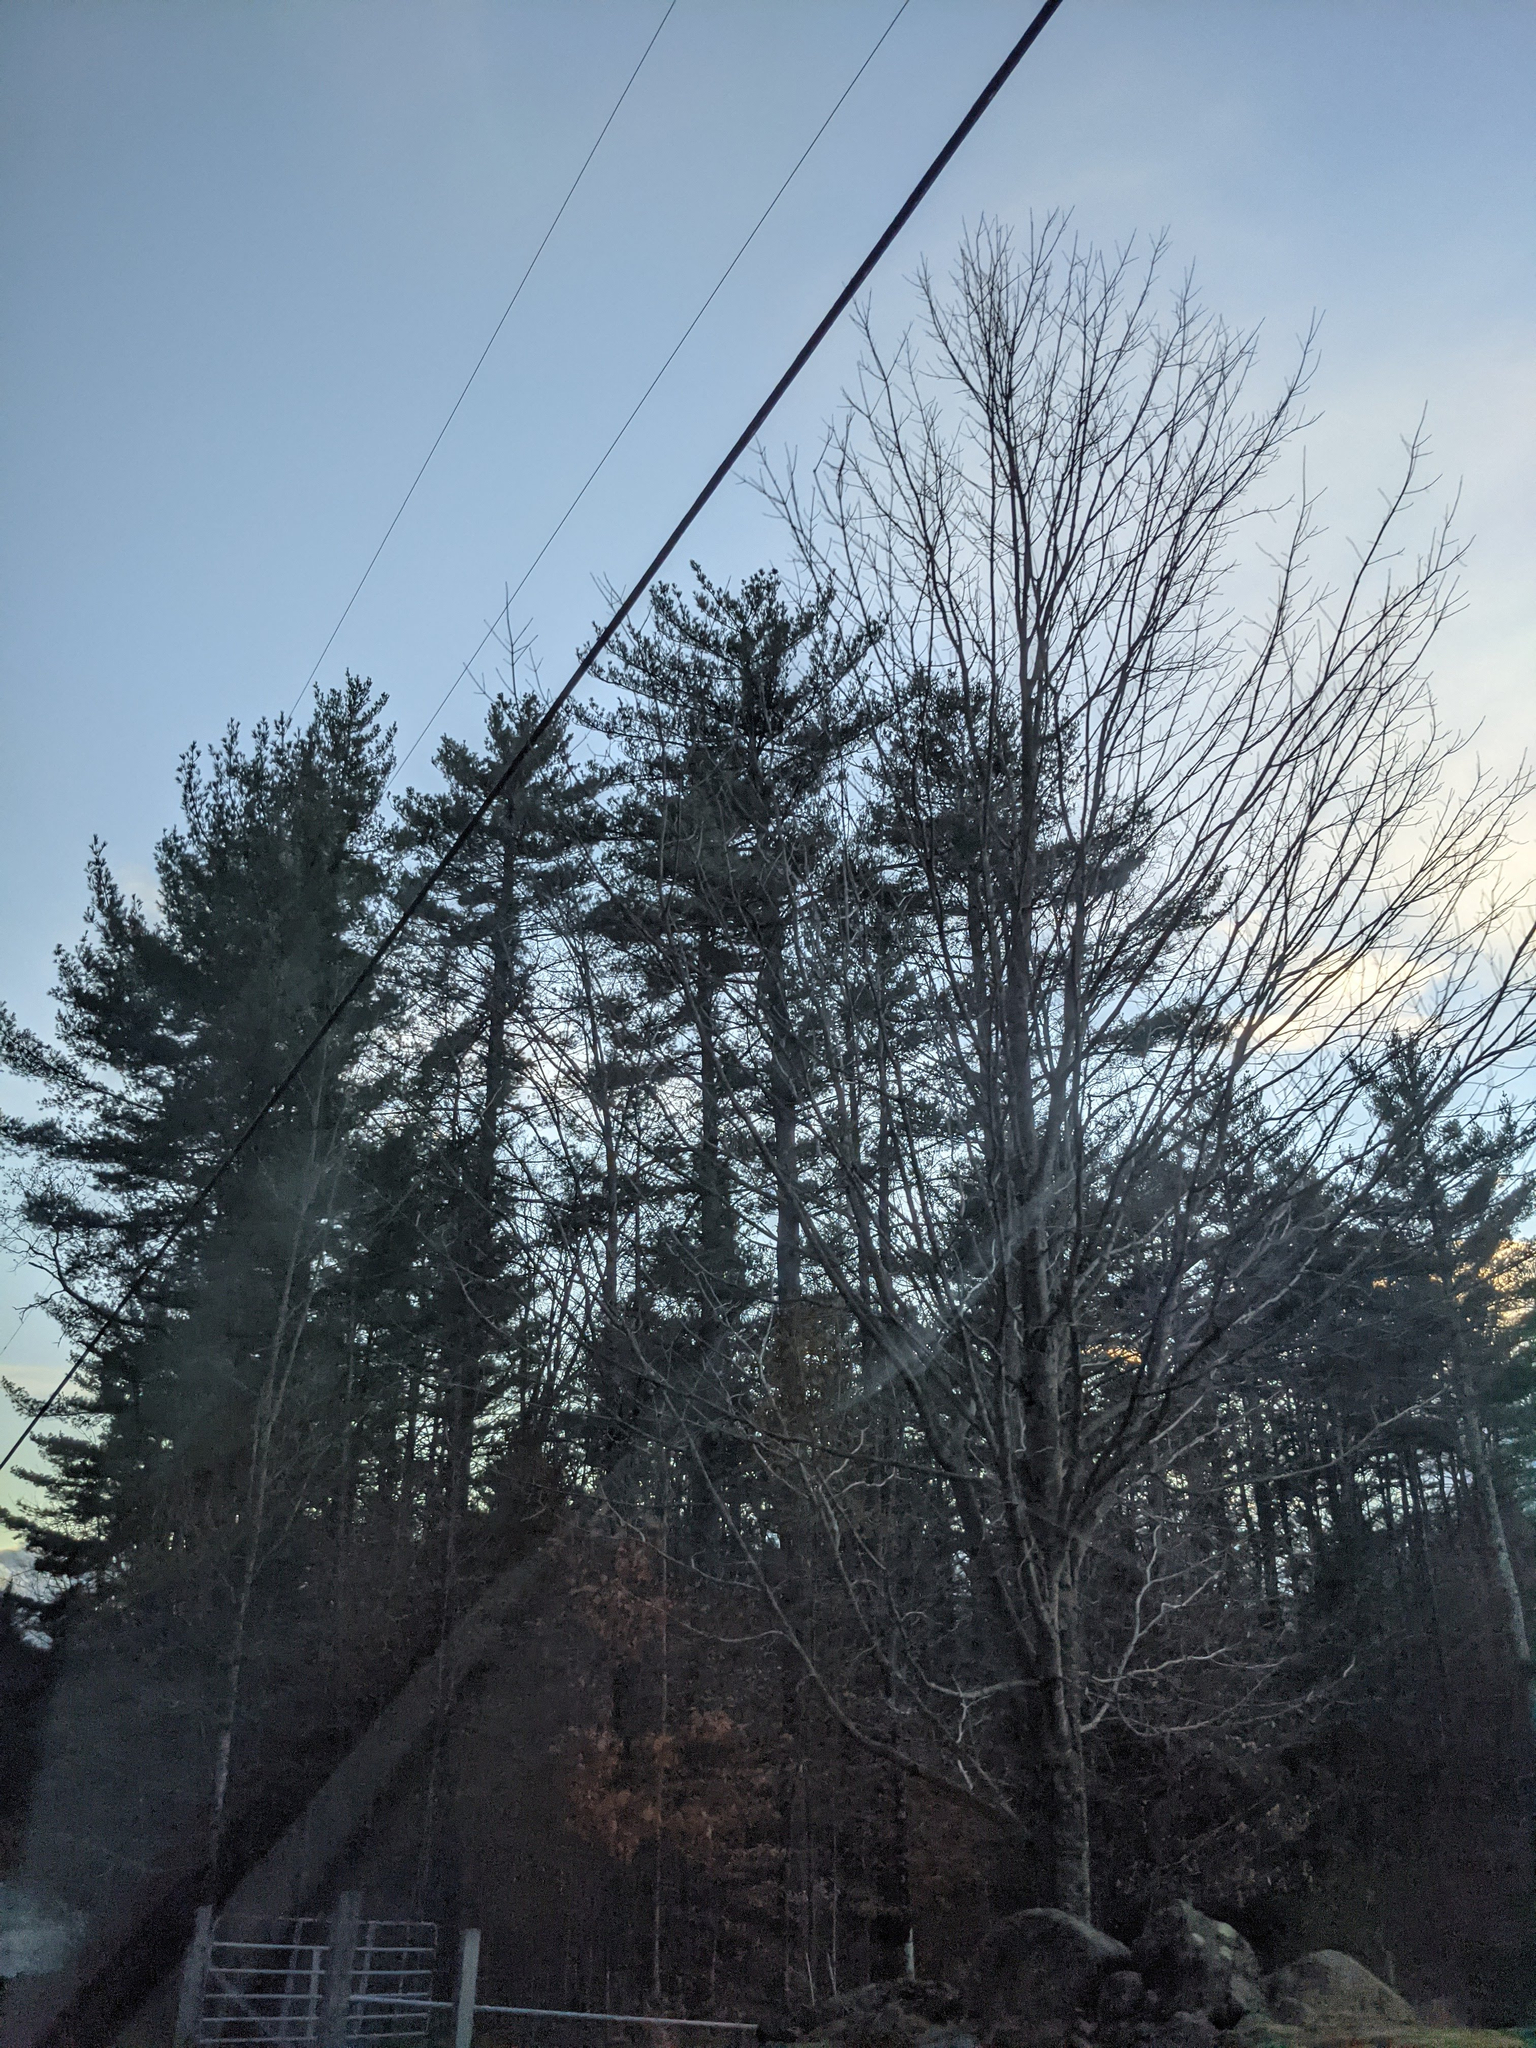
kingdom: Plantae
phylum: Tracheophyta
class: Pinopsida
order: Pinales
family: Pinaceae
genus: Pinus
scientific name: Pinus strobus
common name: Weymouth pine
